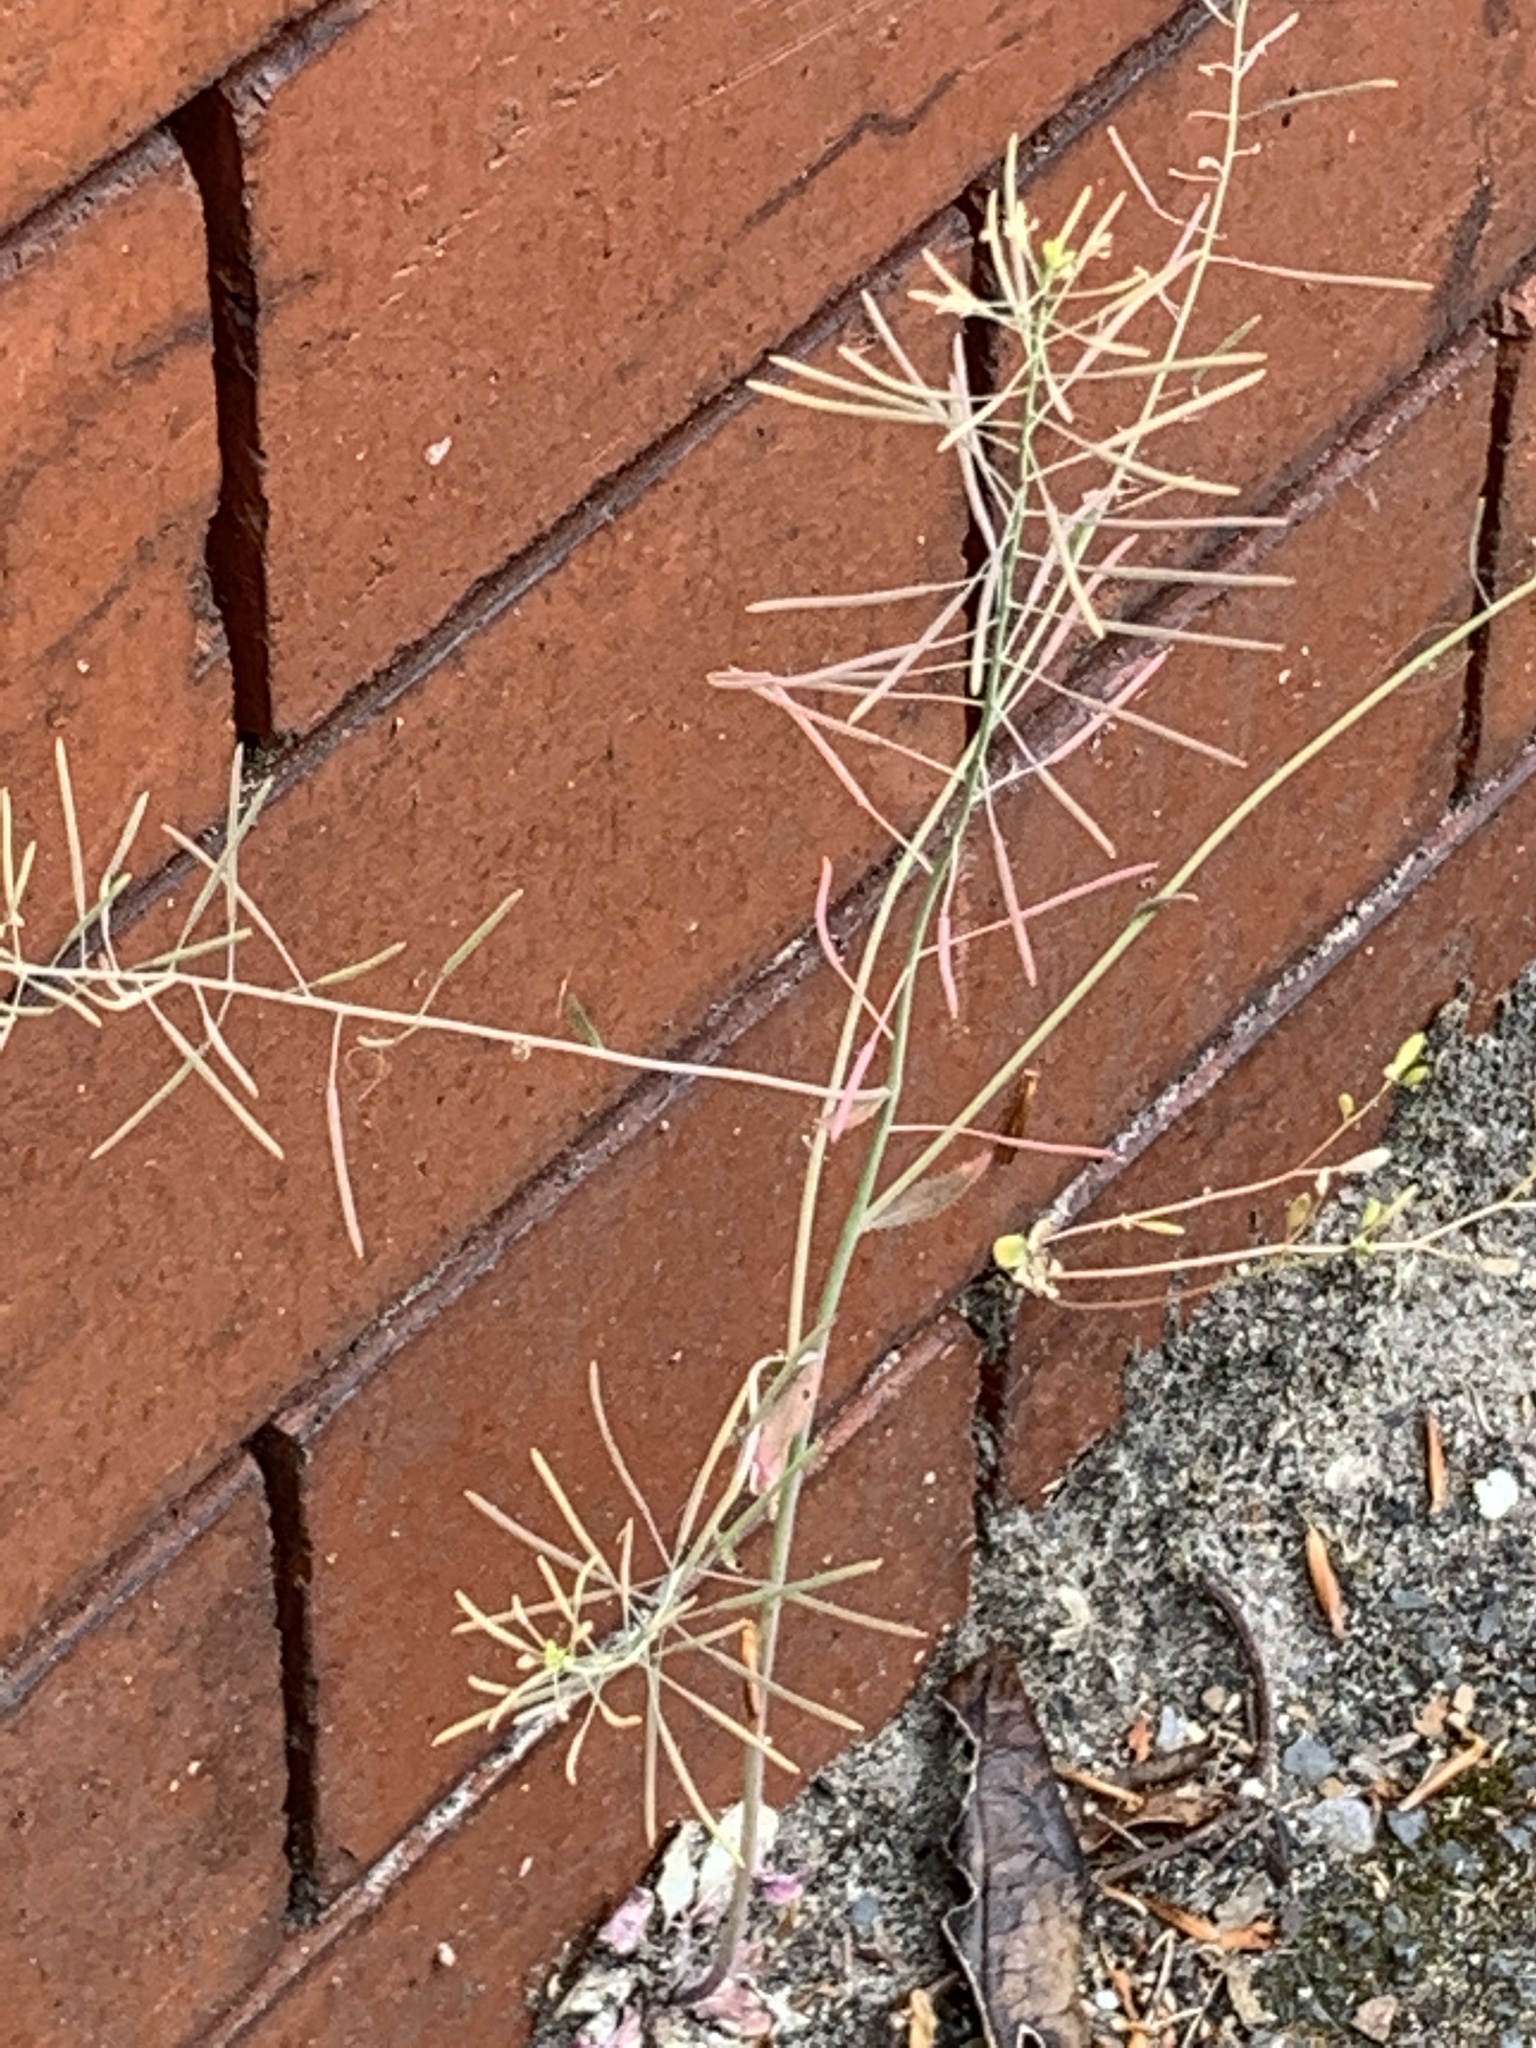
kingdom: Plantae
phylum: Tracheophyta
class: Magnoliopsida
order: Brassicales
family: Brassicaceae
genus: Arabidopsis
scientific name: Arabidopsis thaliana
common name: Thale cress
